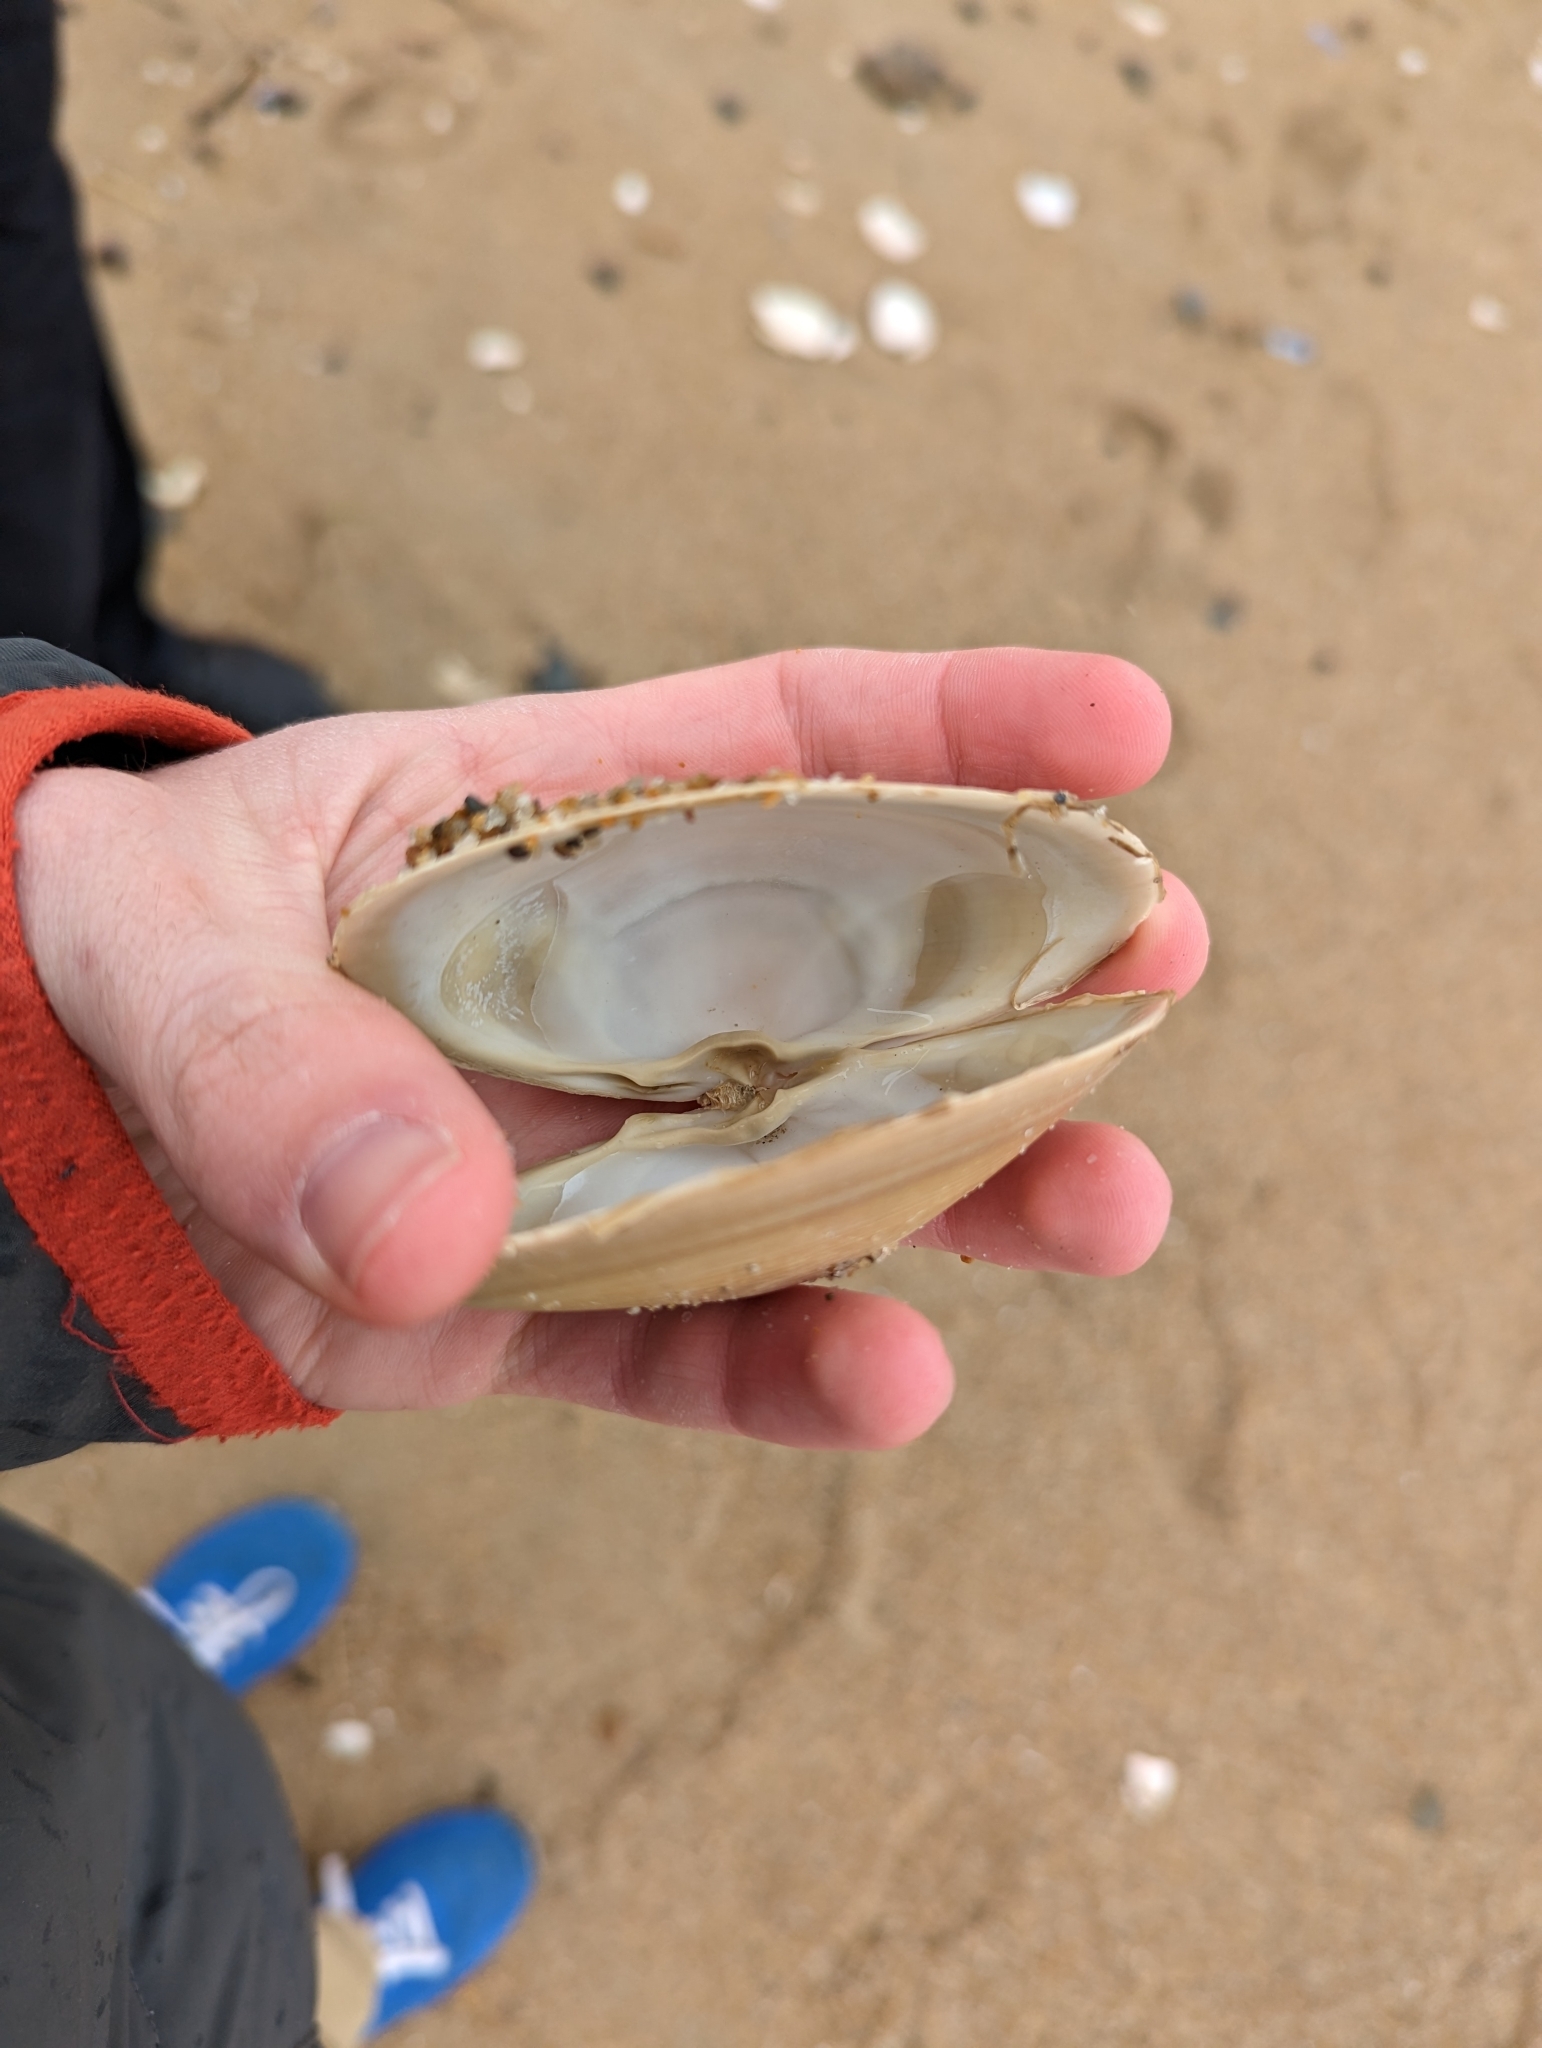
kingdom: Animalia
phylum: Mollusca
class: Bivalvia
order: Venerida
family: Mactridae
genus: Spisula
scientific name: Spisula solidissima
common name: Atlantic surf clam
